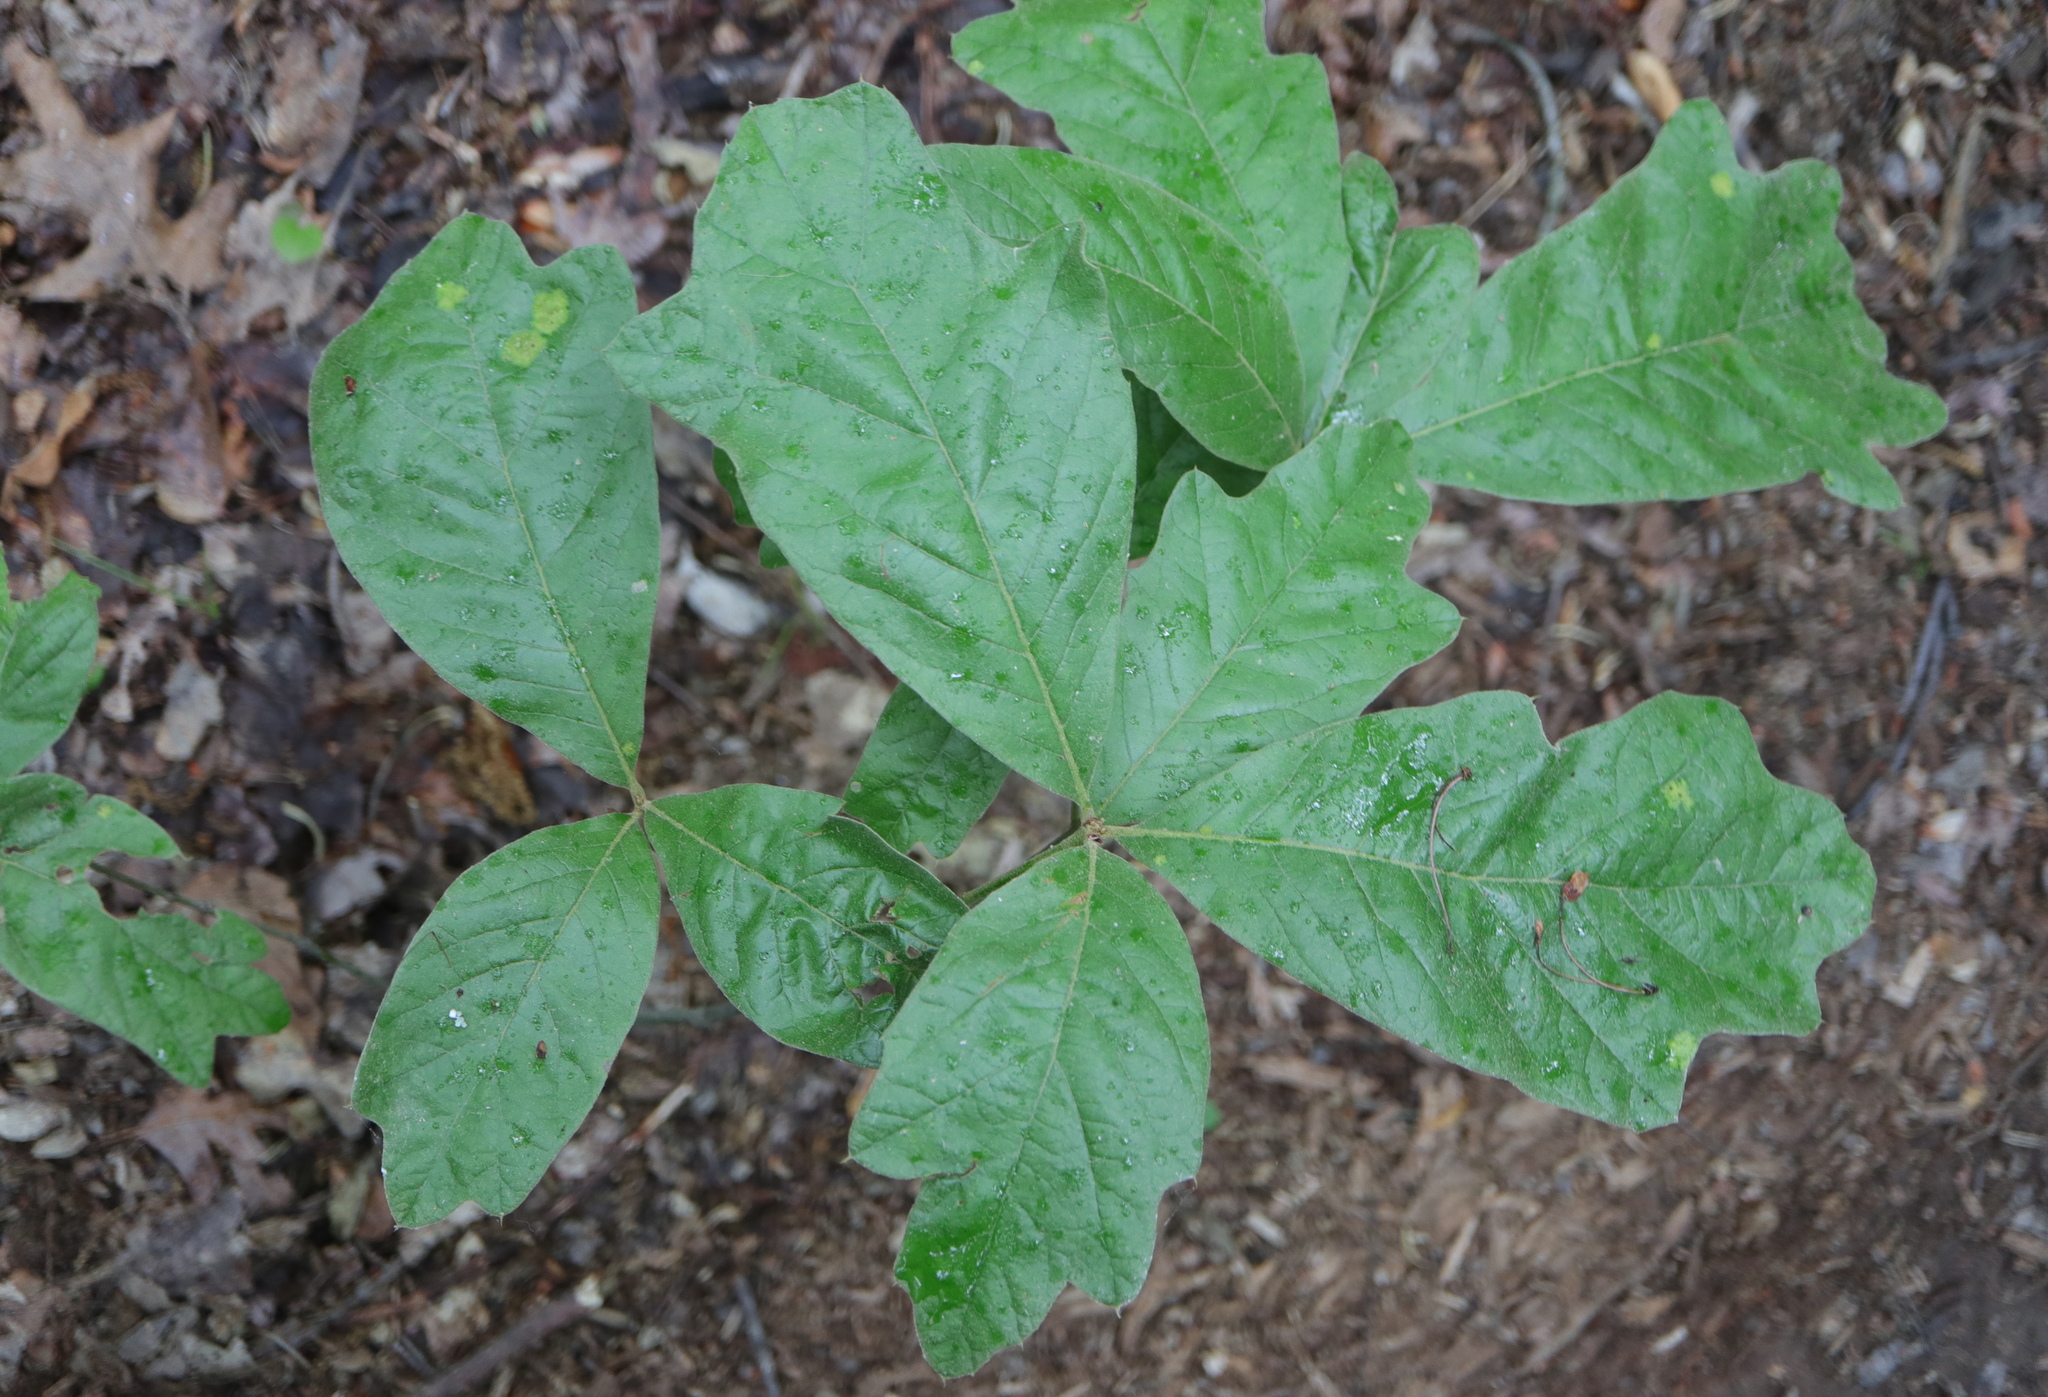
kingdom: Fungi
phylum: Ascomycota
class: Taphrinomycetes
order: Taphrinales
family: Taphrinaceae
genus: Taphrina
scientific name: Taphrina caerulescens
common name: Oak leaf blister
